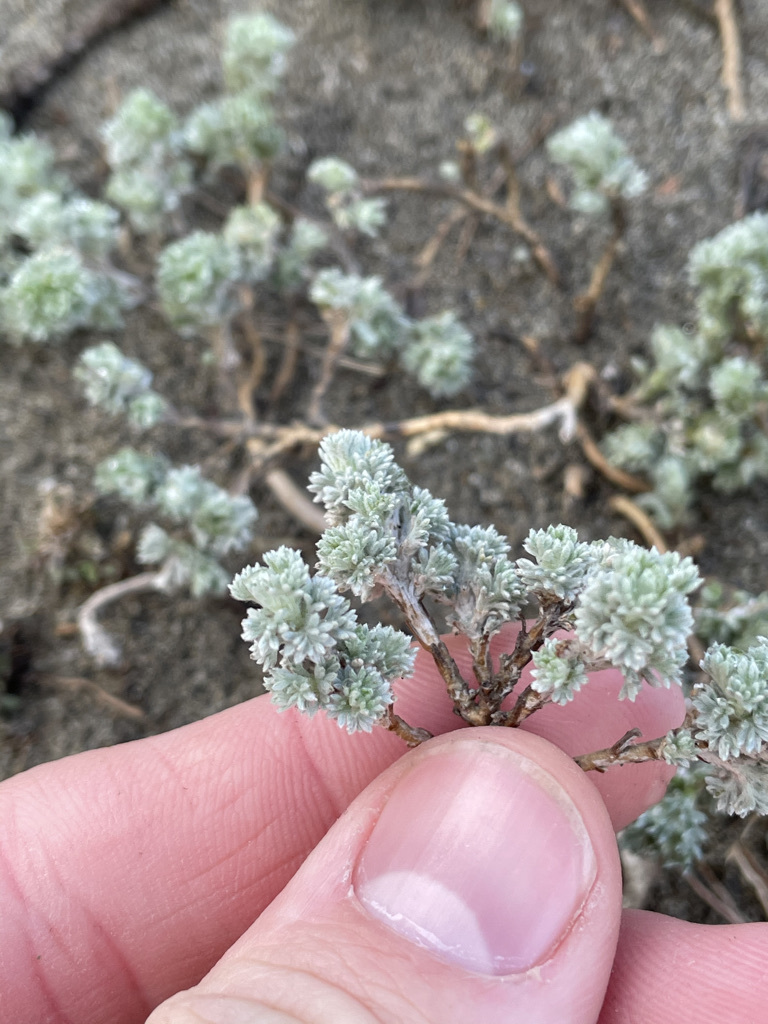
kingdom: Plantae
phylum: Tracheophyta
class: Magnoliopsida
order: Asterales
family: Asteraceae
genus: Artemisia
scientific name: Artemisia frigida
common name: Prairie sagewort
